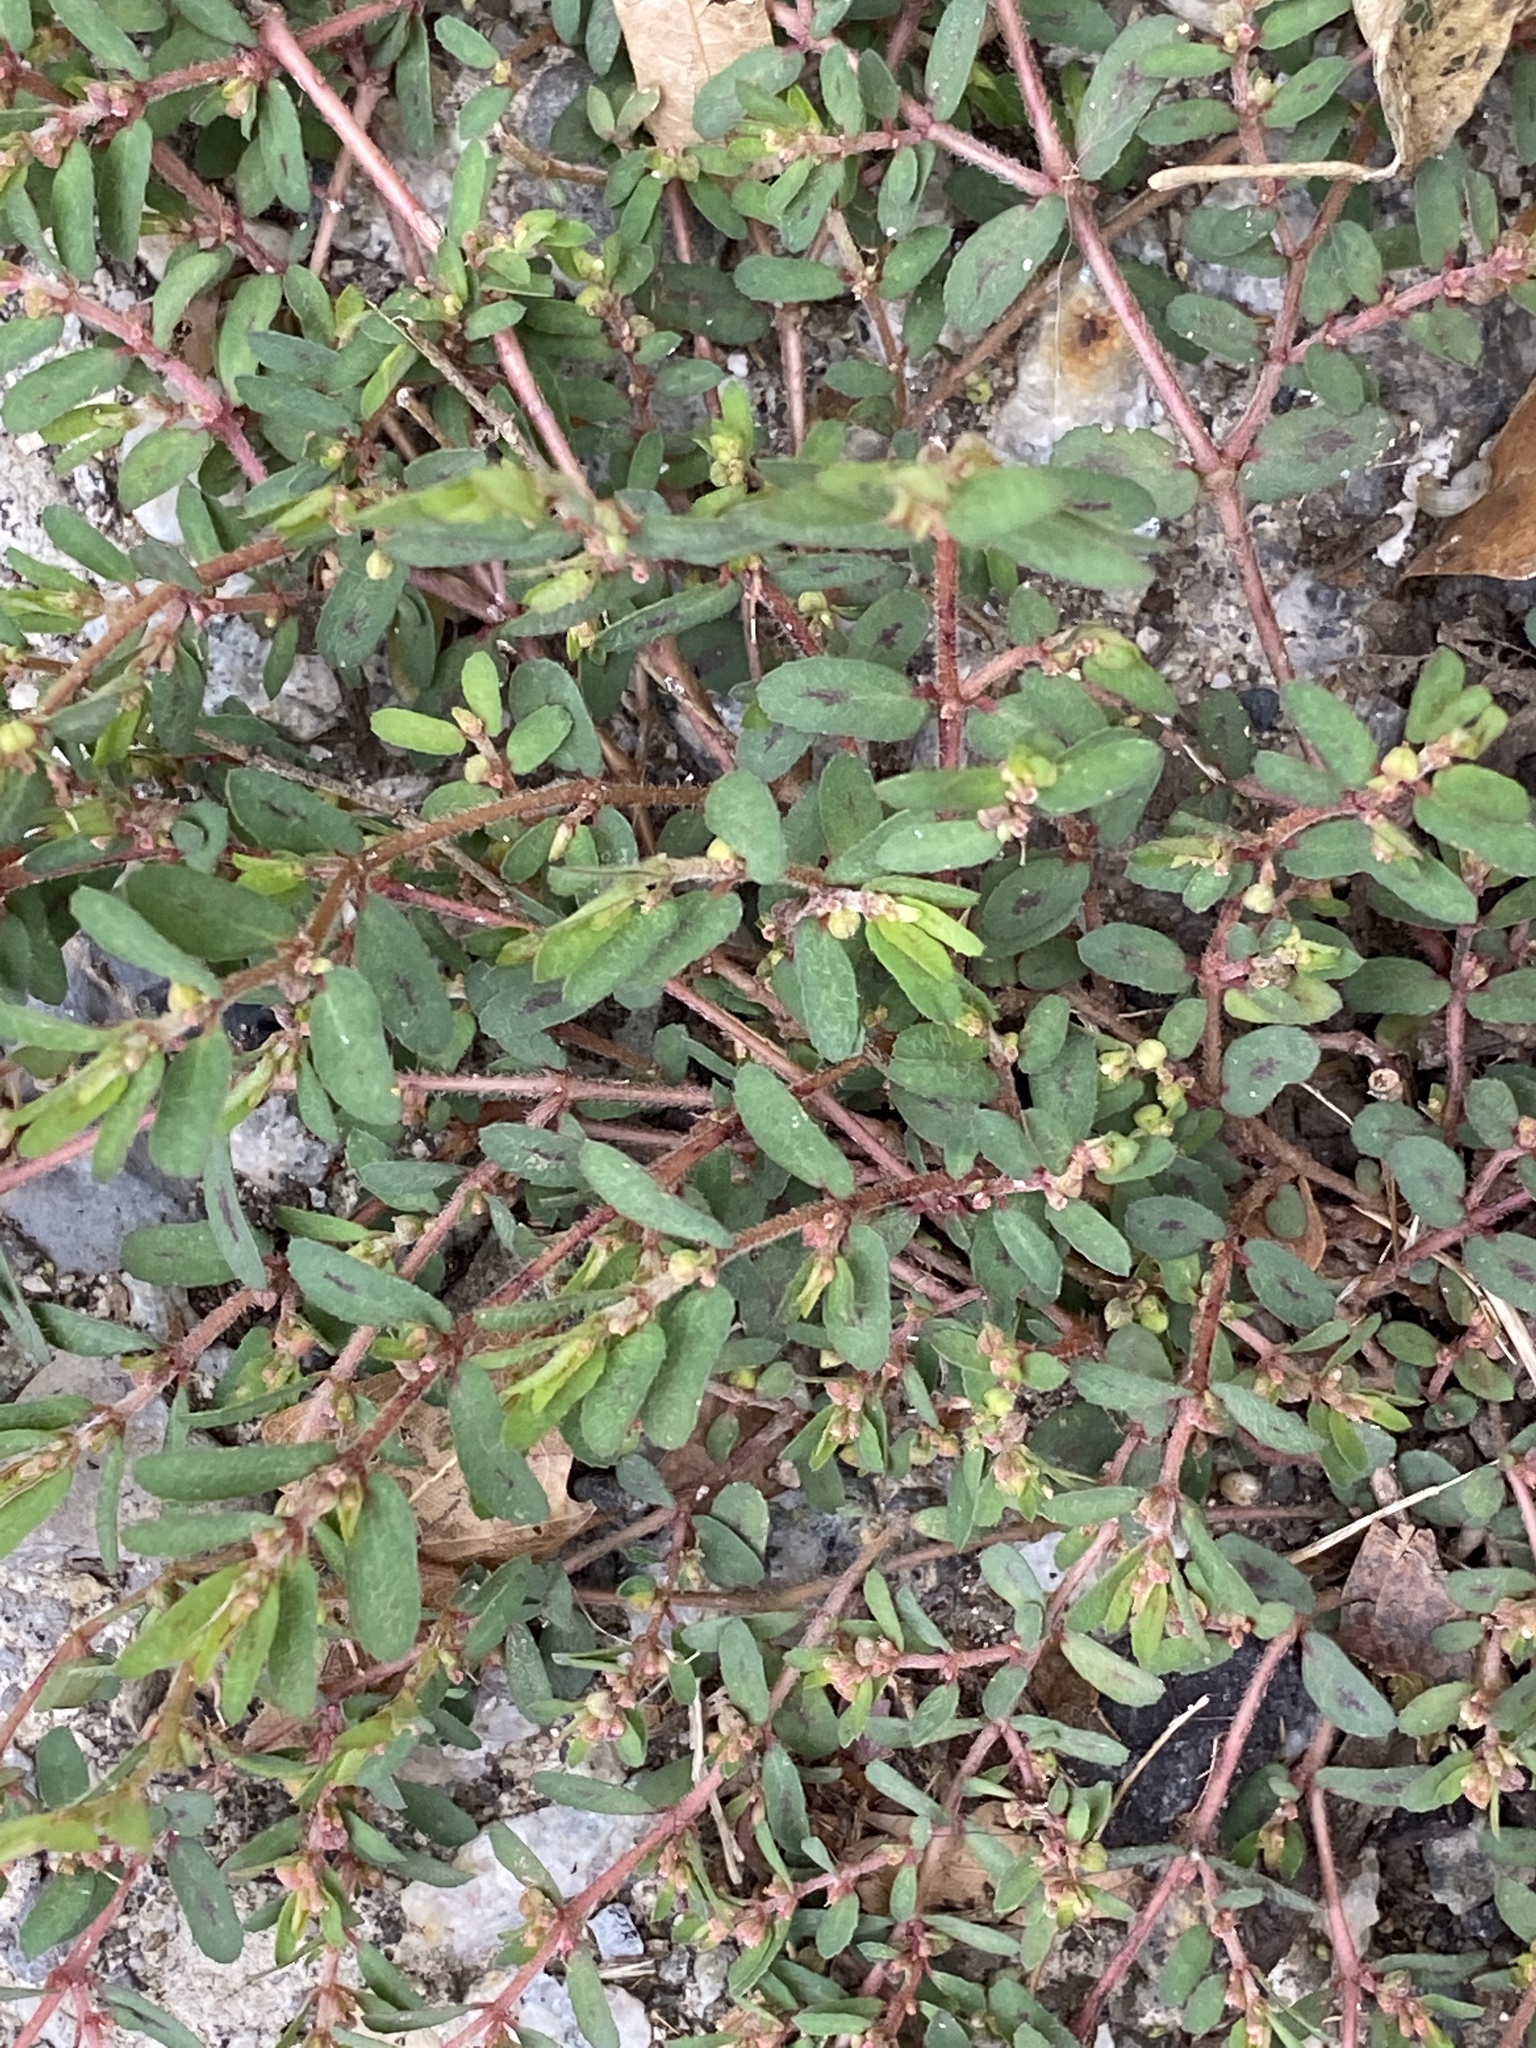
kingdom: Plantae
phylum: Tracheophyta
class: Magnoliopsida
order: Malpighiales
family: Euphorbiaceae
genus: Euphorbia
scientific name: Euphorbia maculata
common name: Spotted spurge
